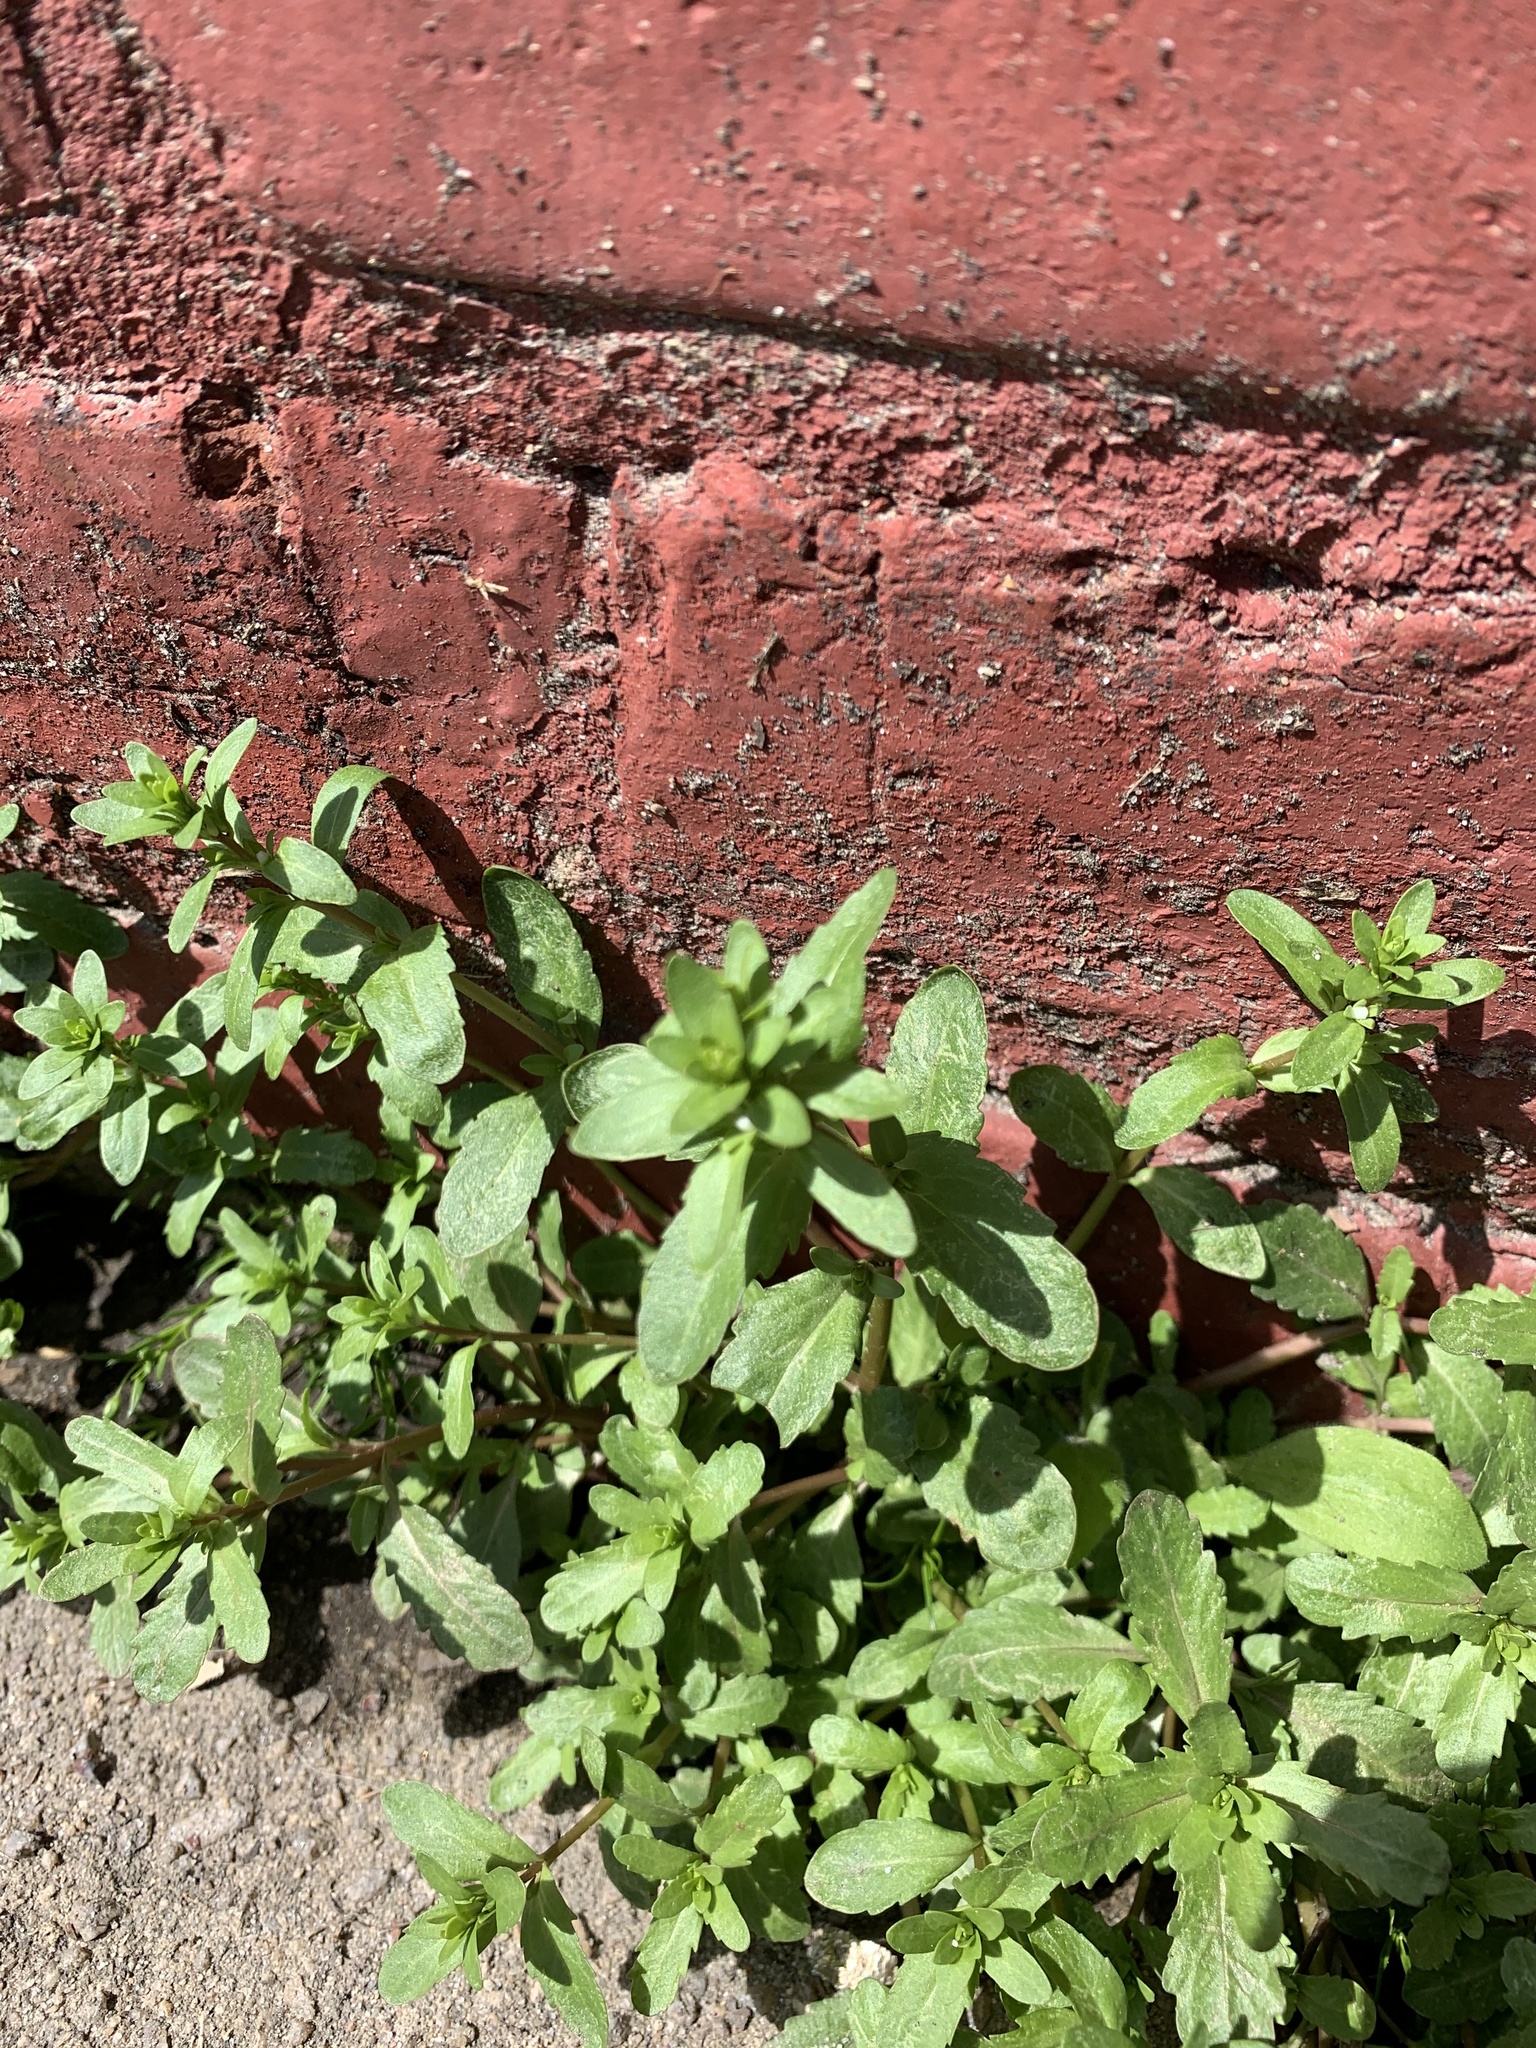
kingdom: Plantae
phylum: Tracheophyta
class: Magnoliopsida
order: Lamiales
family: Plantaginaceae
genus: Veronica
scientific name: Veronica peregrina
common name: Neckweed
